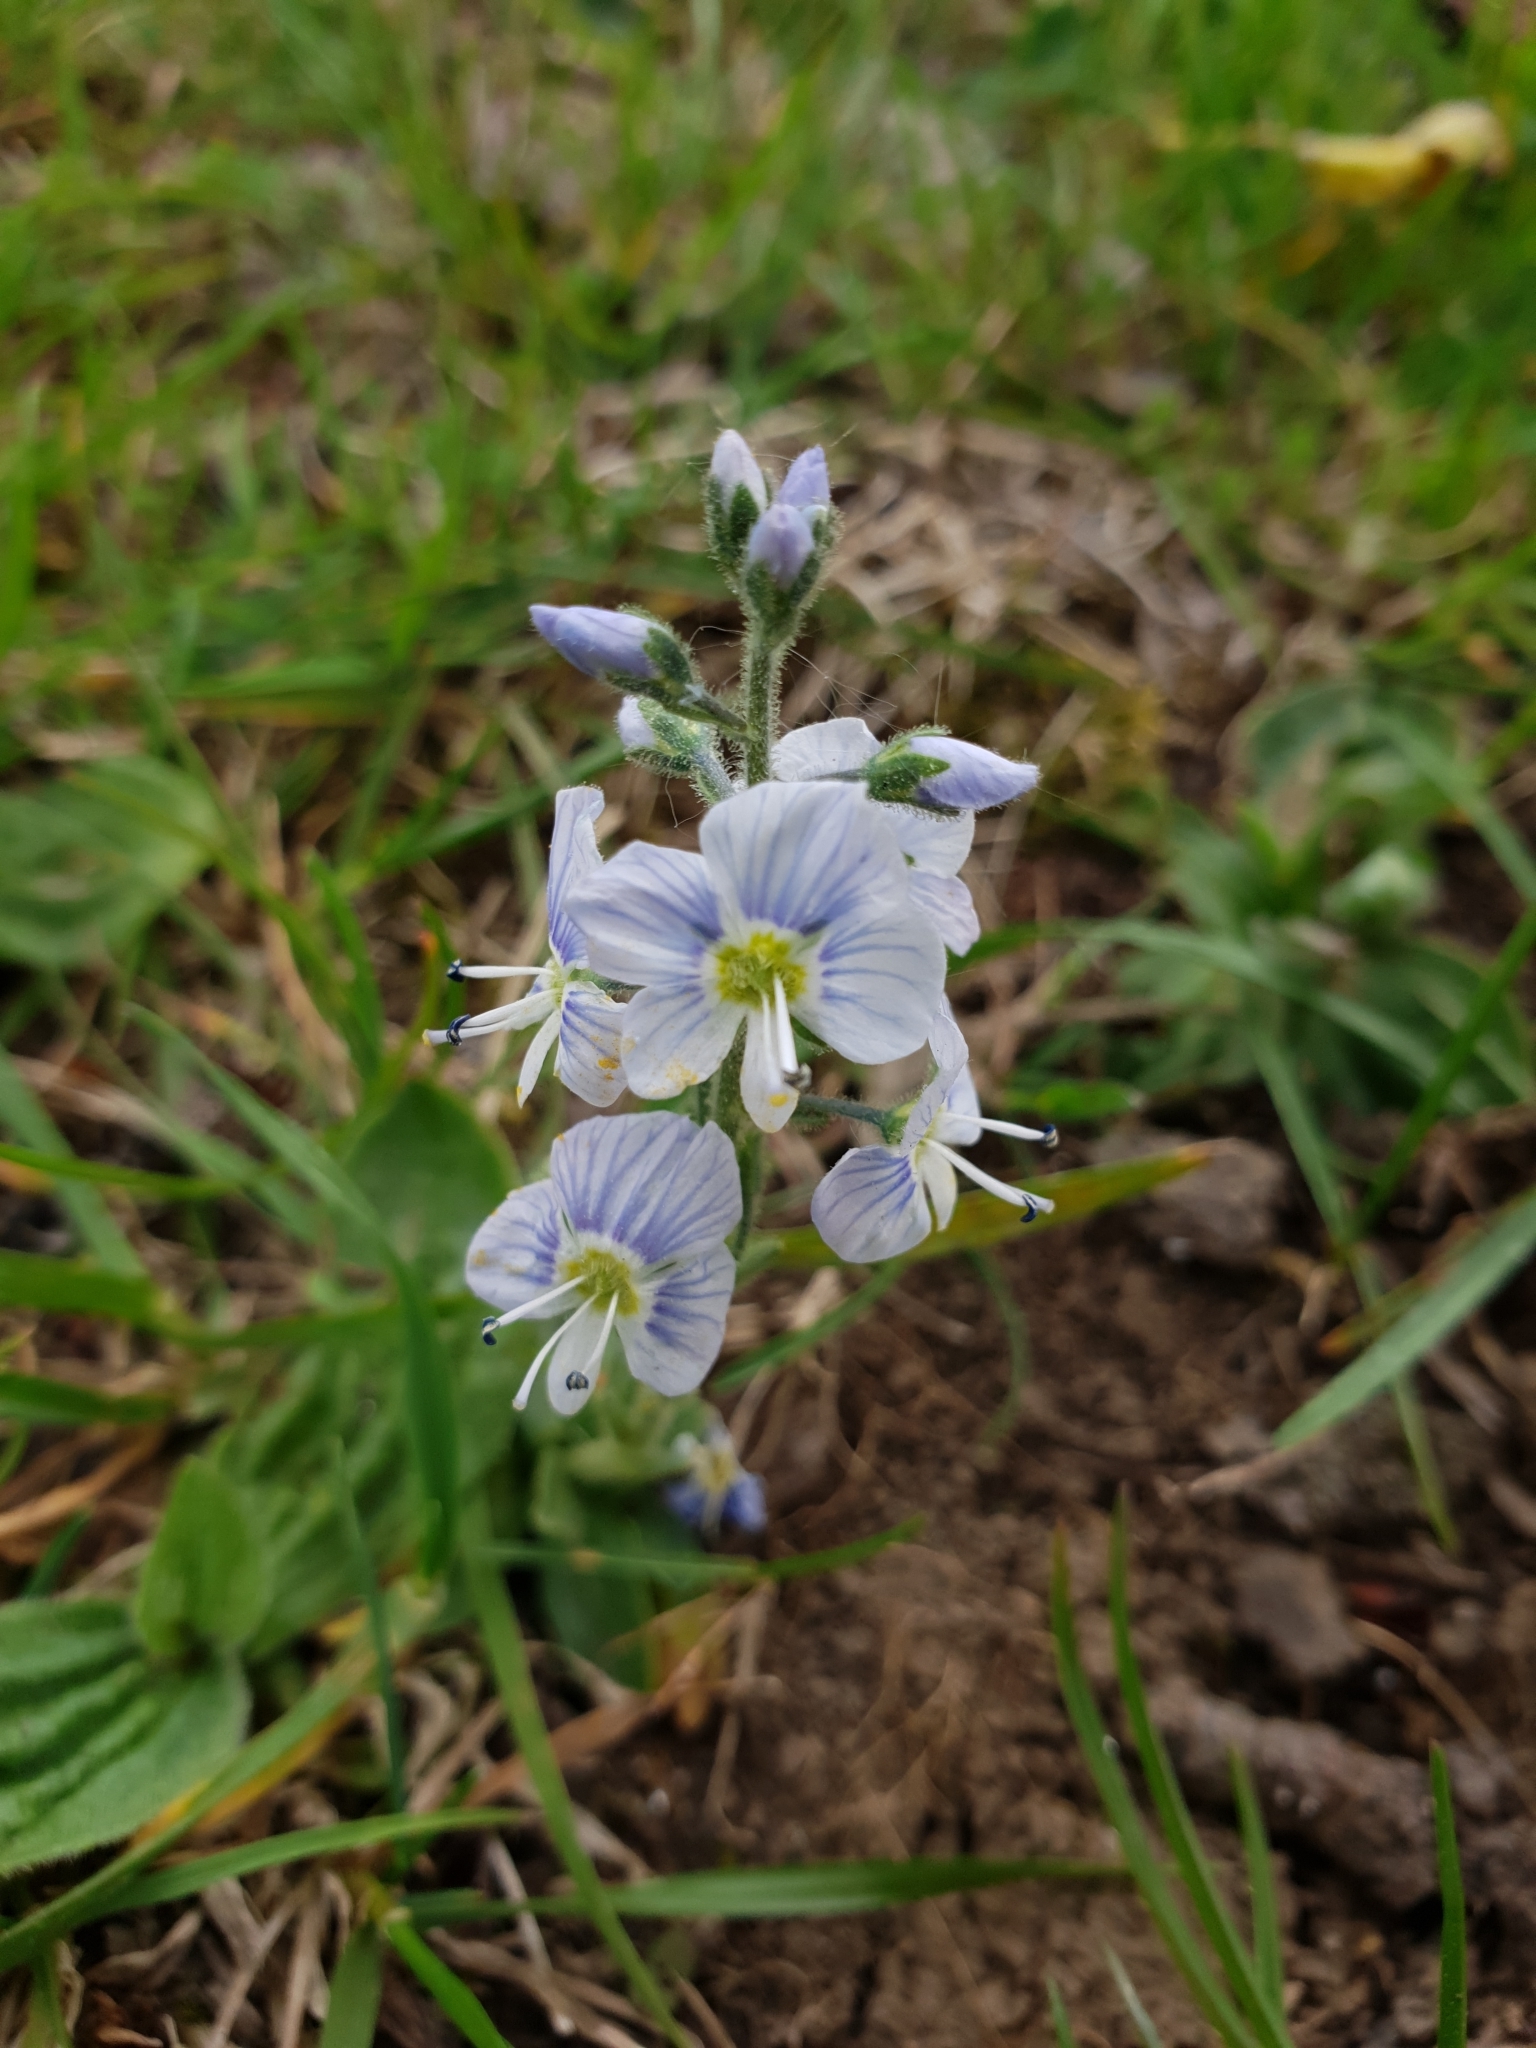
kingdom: Plantae
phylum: Tracheophyta
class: Magnoliopsida
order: Lamiales
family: Plantaginaceae
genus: Veronica
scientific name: Veronica gentianoides
